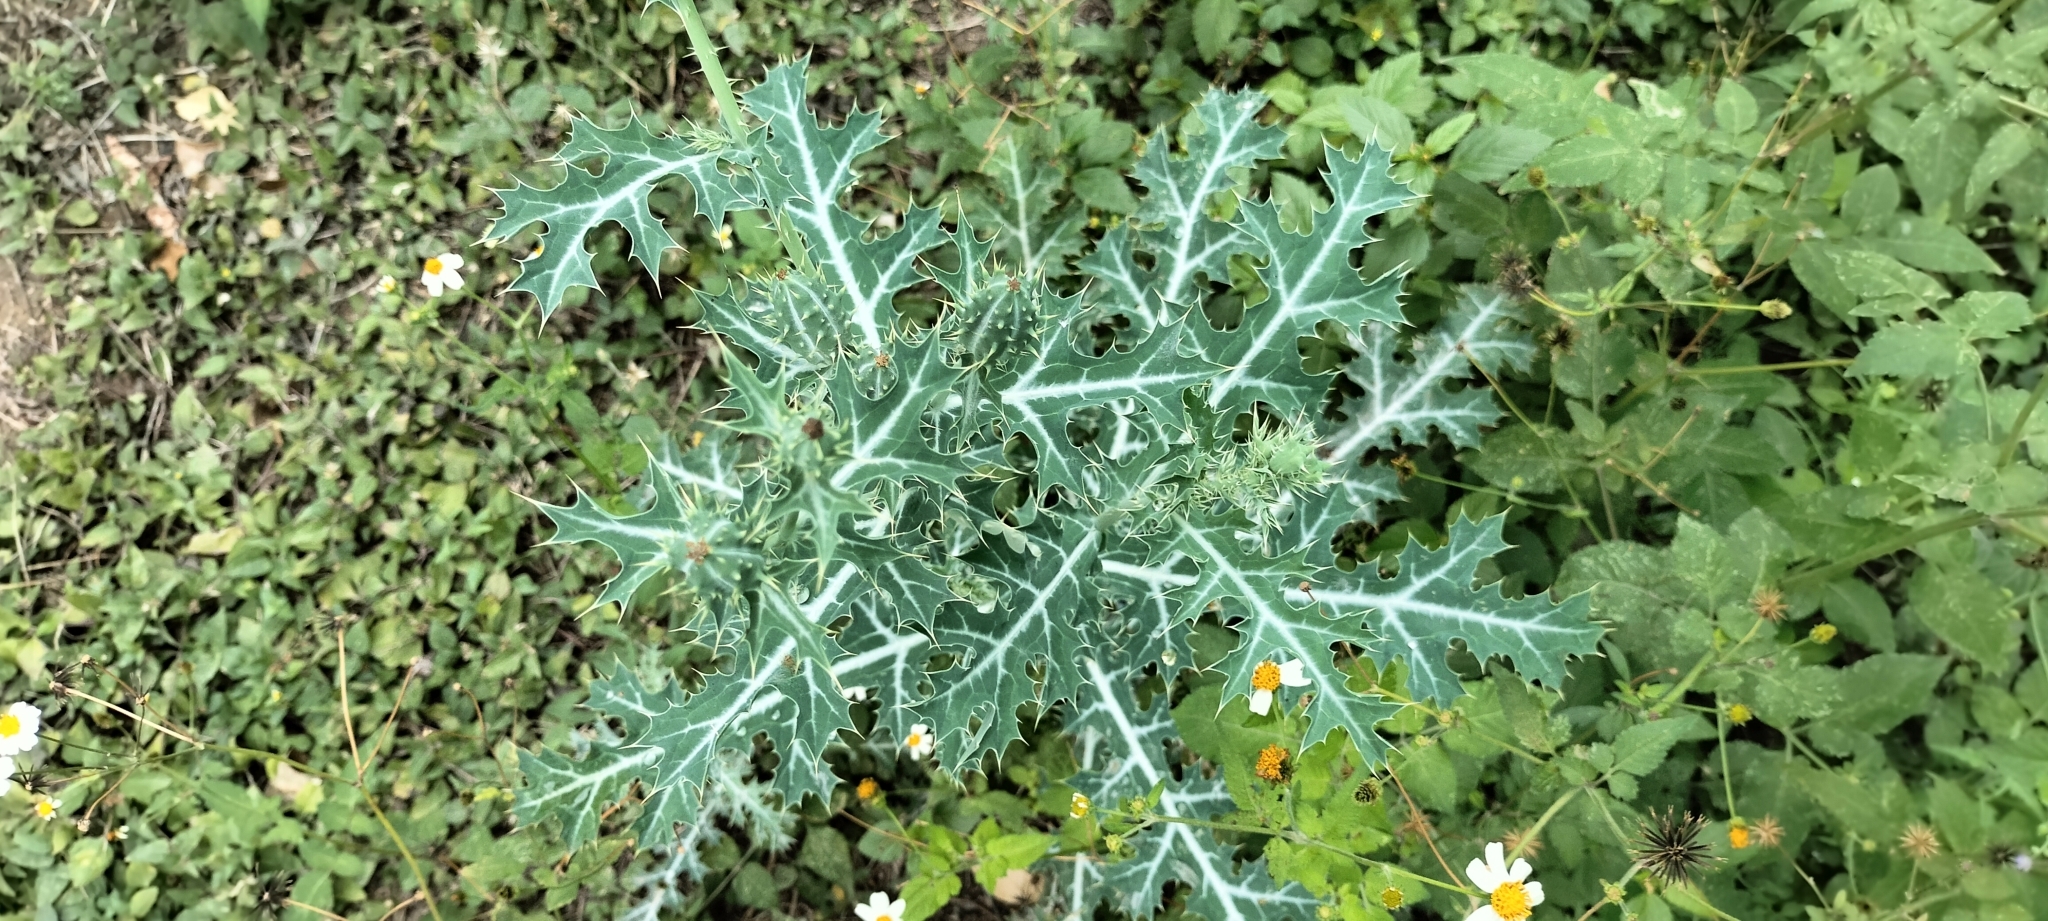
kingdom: Plantae
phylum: Tracheophyta
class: Magnoliopsida
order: Ranunculales
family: Papaveraceae
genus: Argemone
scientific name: Argemone mexicana
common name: Mexican poppy
